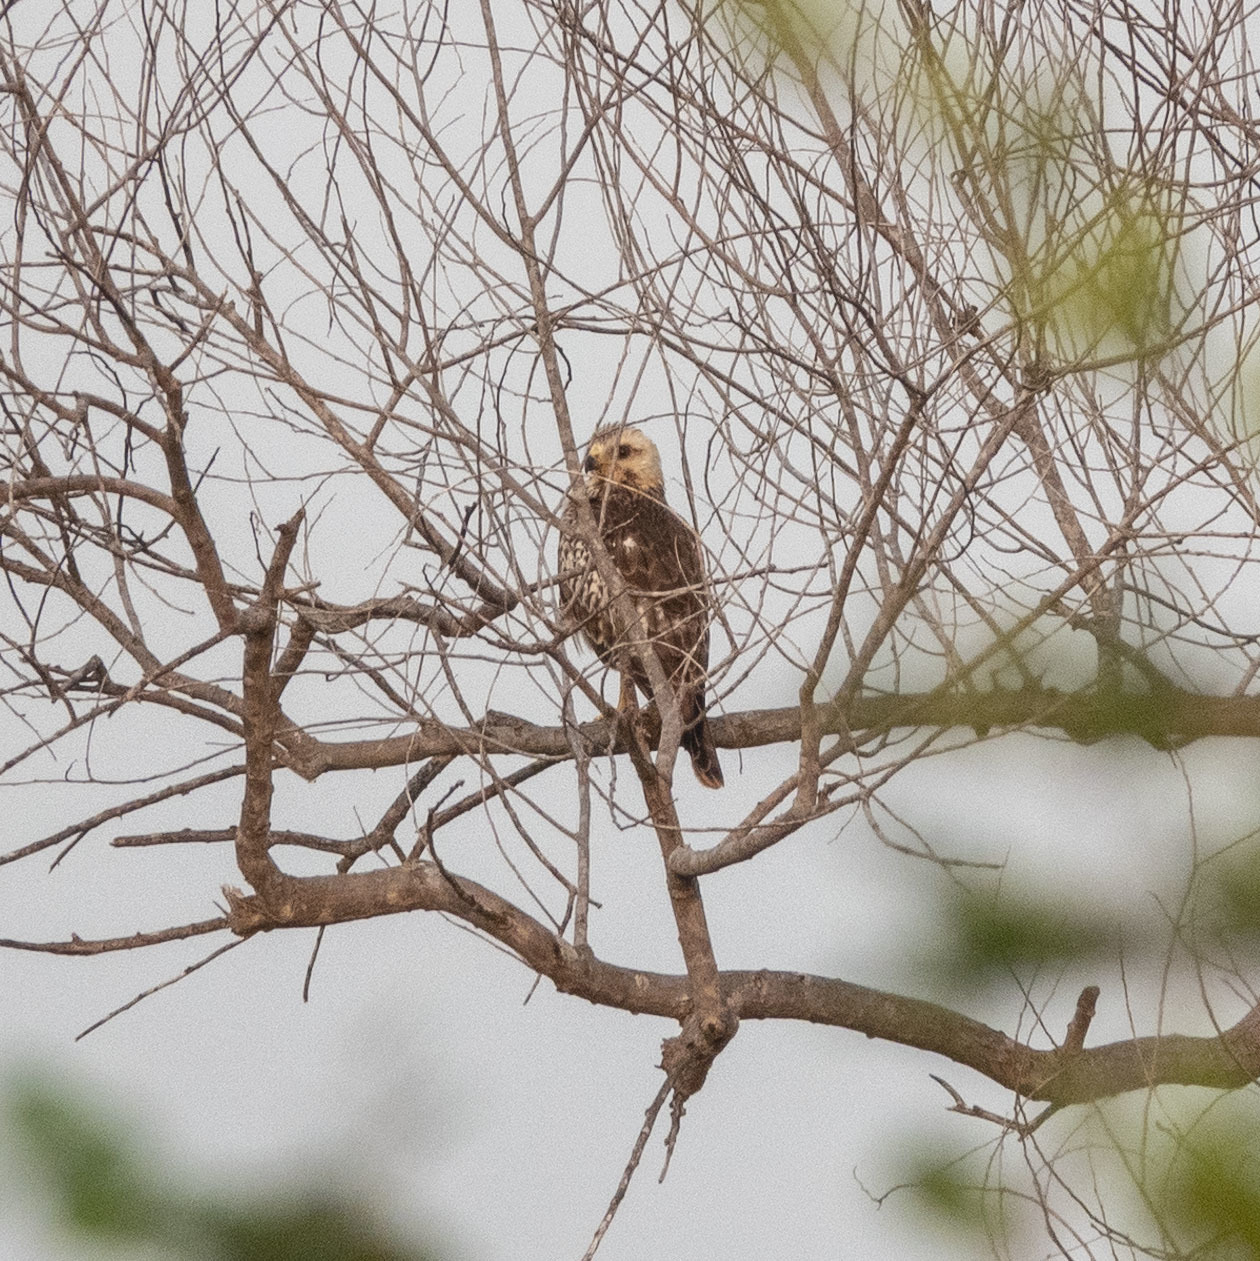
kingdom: Animalia
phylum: Chordata
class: Aves
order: Accipitriformes
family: Accipitridae
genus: Butastur
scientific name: Butastur teesa
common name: White-eyed buzzard
